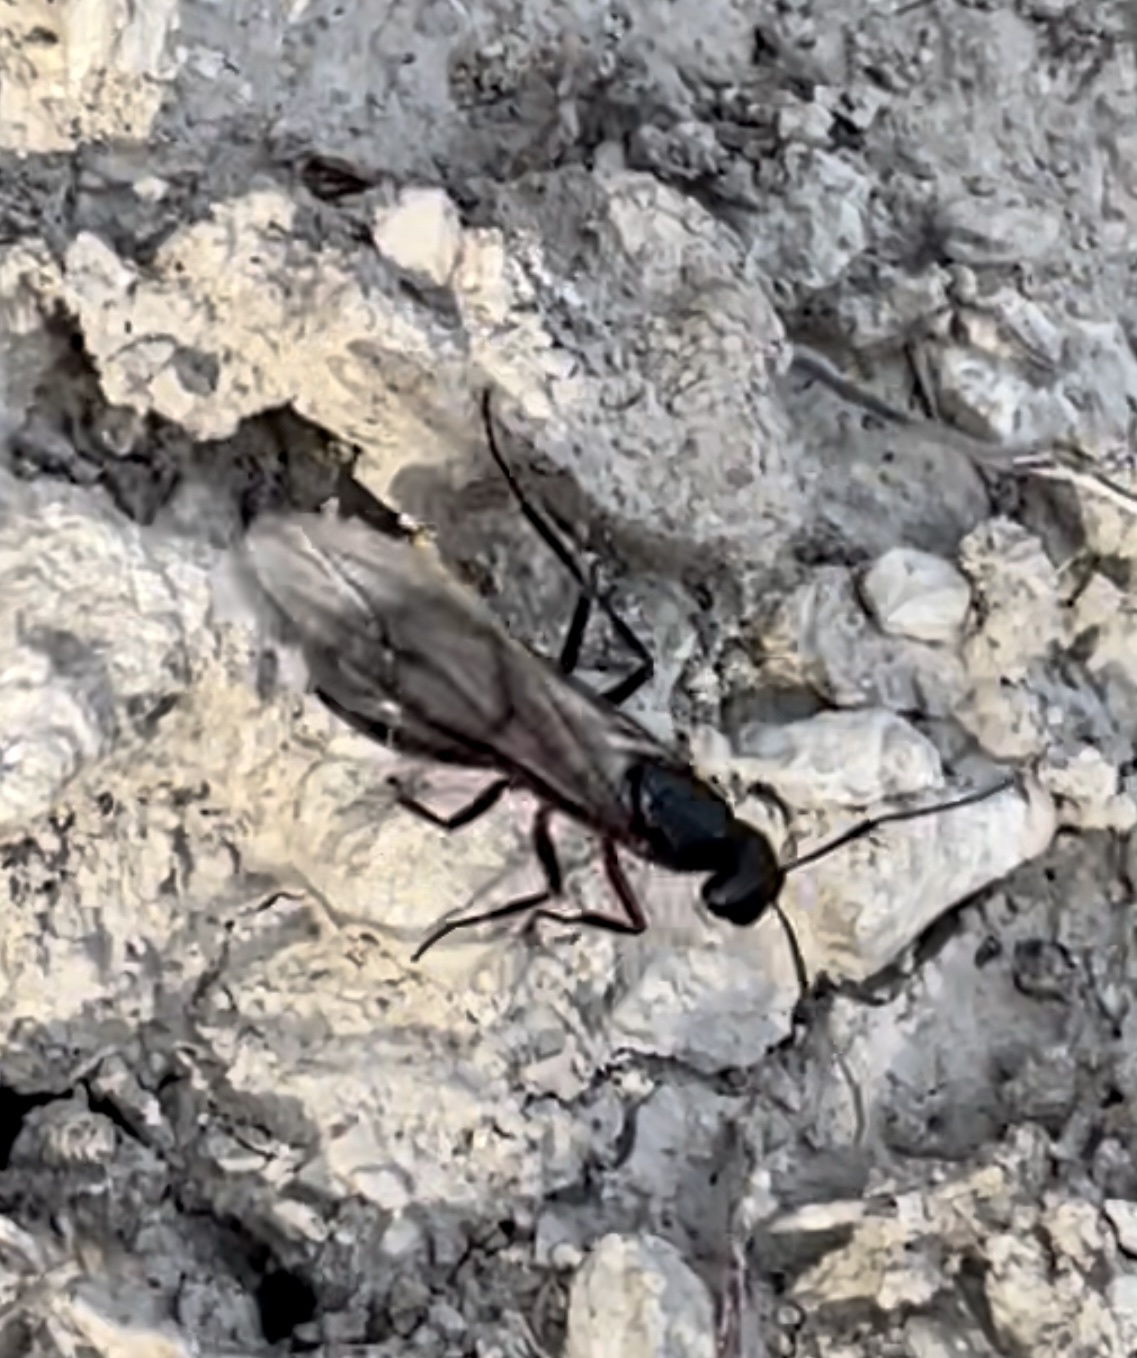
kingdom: Animalia
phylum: Arthropoda
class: Insecta
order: Hymenoptera
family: Formicidae
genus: Camponotus
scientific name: Camponotus cruentatus
